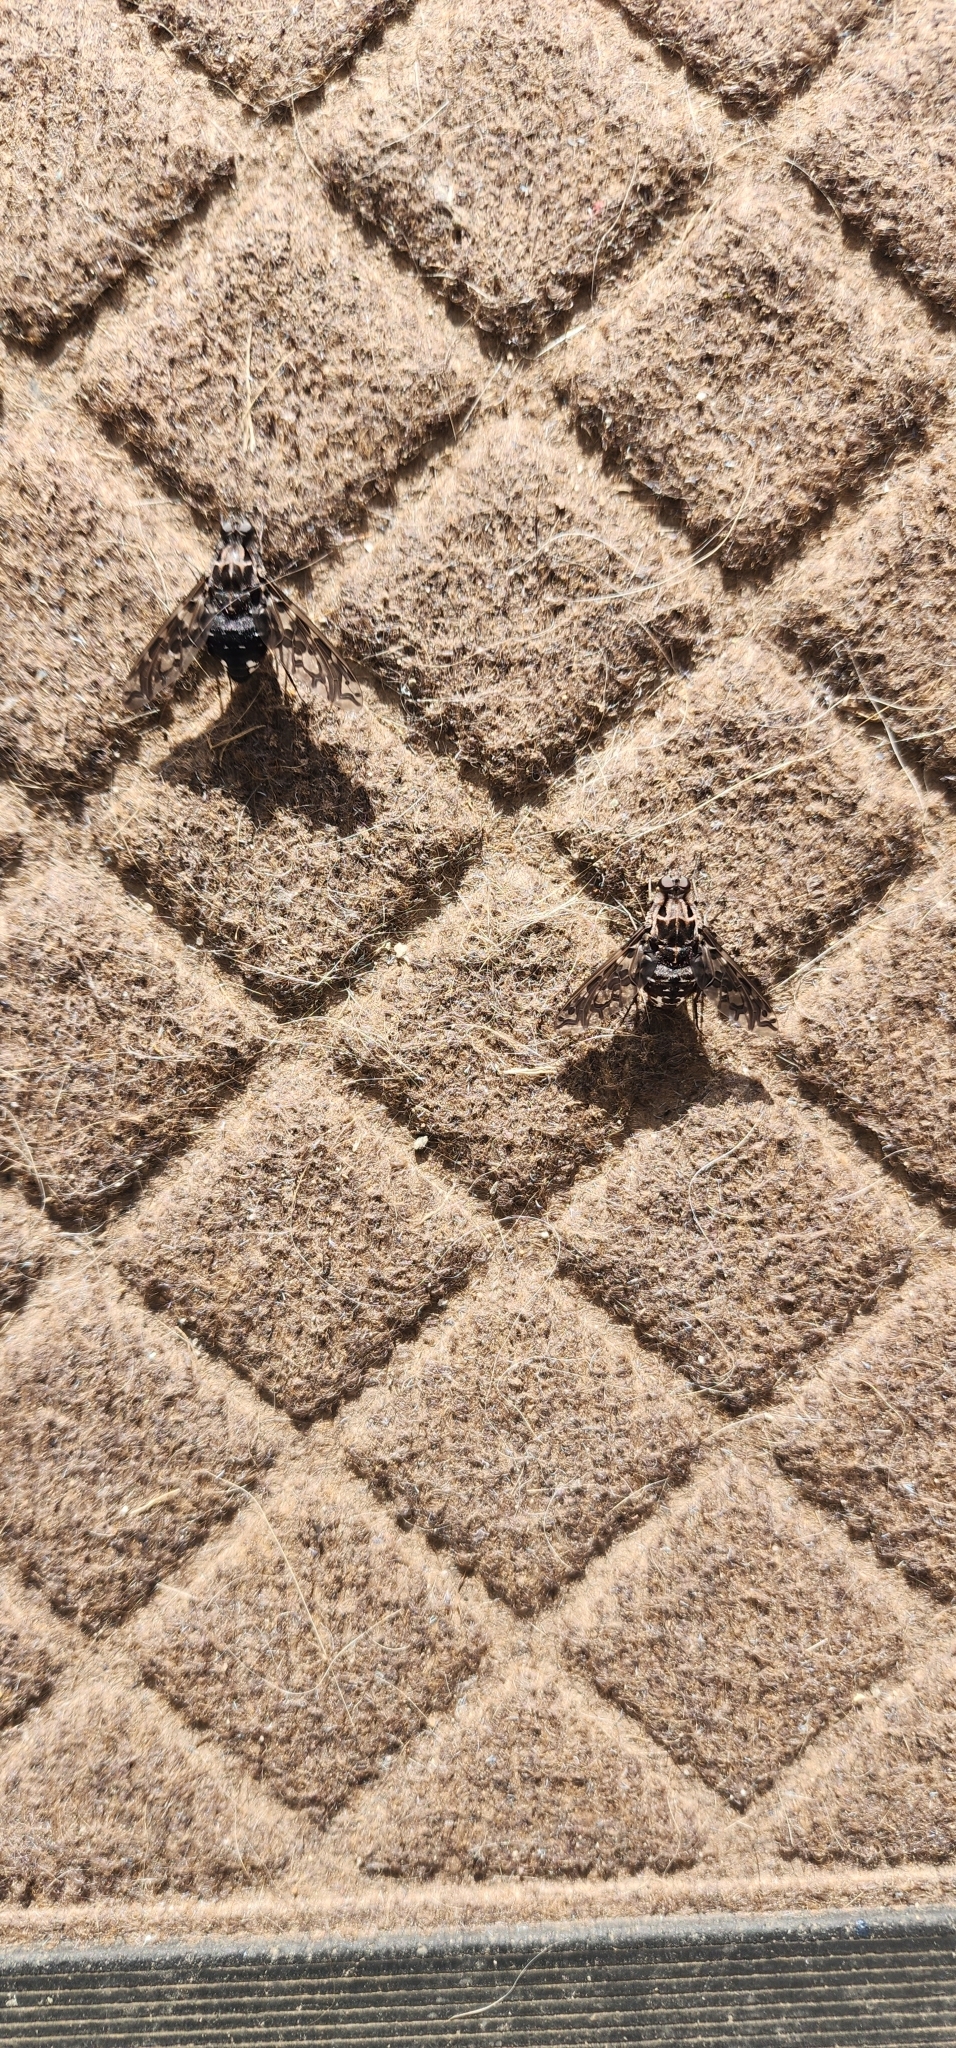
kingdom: Animalia
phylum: Arthropoda
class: Insecta
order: Diptera
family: Bombyliidae
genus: Xenox
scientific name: Xenox tigrinus
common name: Tiger bee fly
